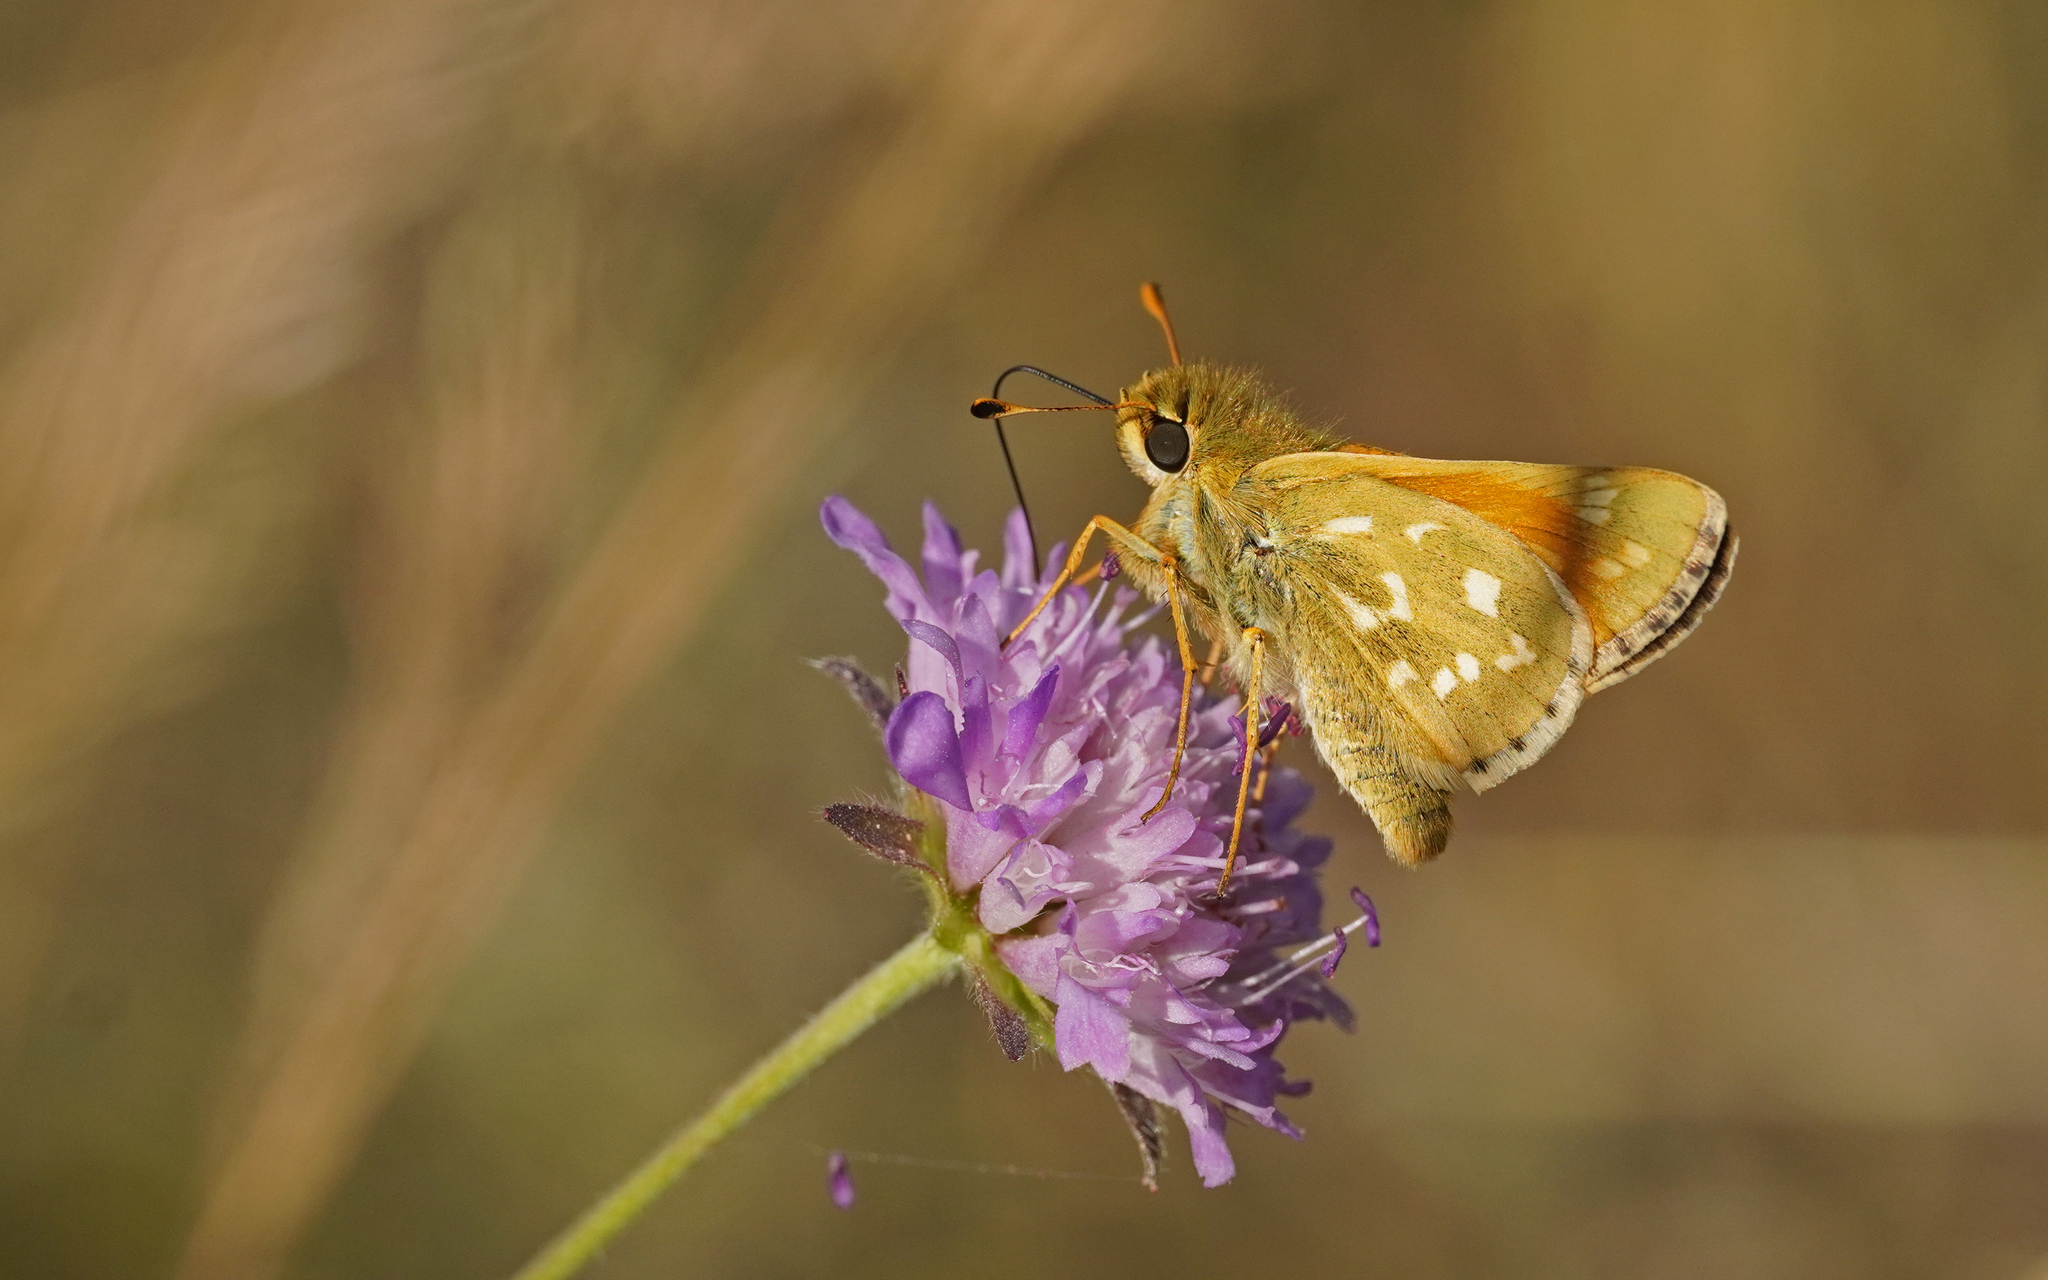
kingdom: Animalia
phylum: Arthropoda
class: Insecta
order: Lepidoptera
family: Hesperiidae
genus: Hesperia
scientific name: Hesperia comma
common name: Common branded skipper
